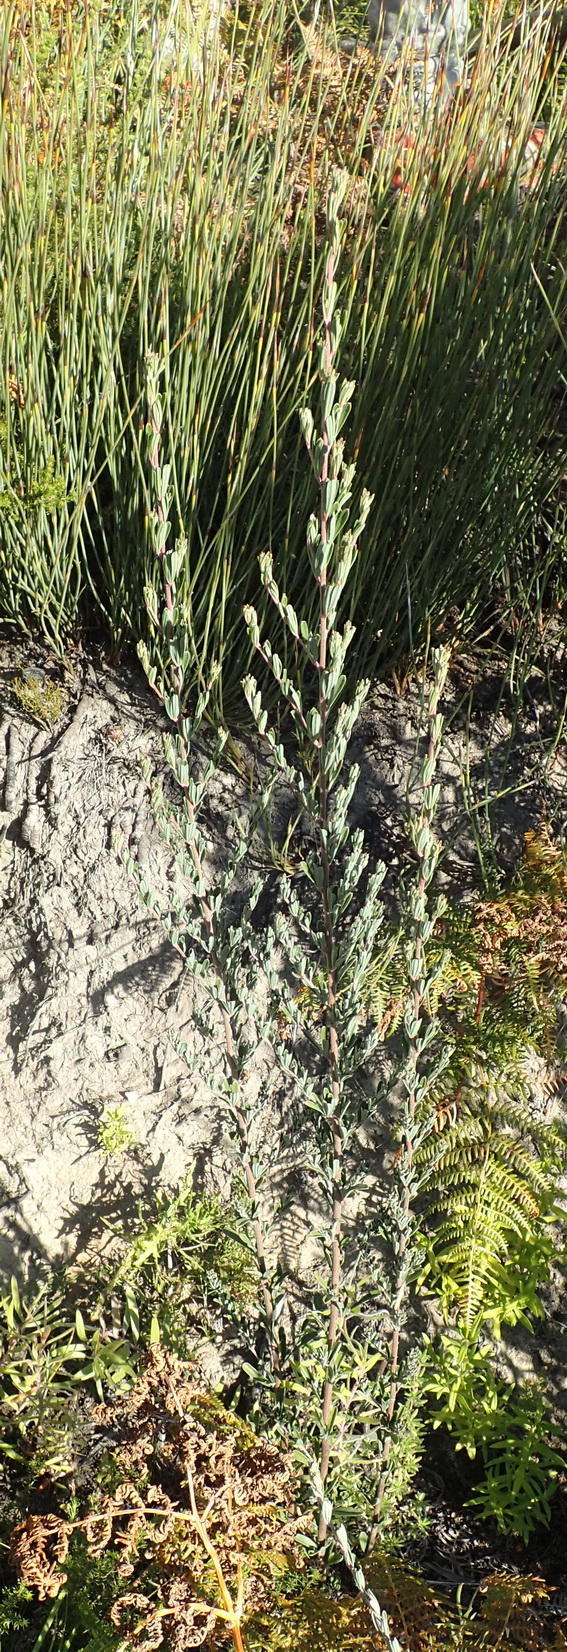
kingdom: Plantae
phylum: Tracheophyta
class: Magnoliopsida
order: Fabales
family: Fabaceae
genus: Cyclopia
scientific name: Cyclopia subternata
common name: Honeybush tea
